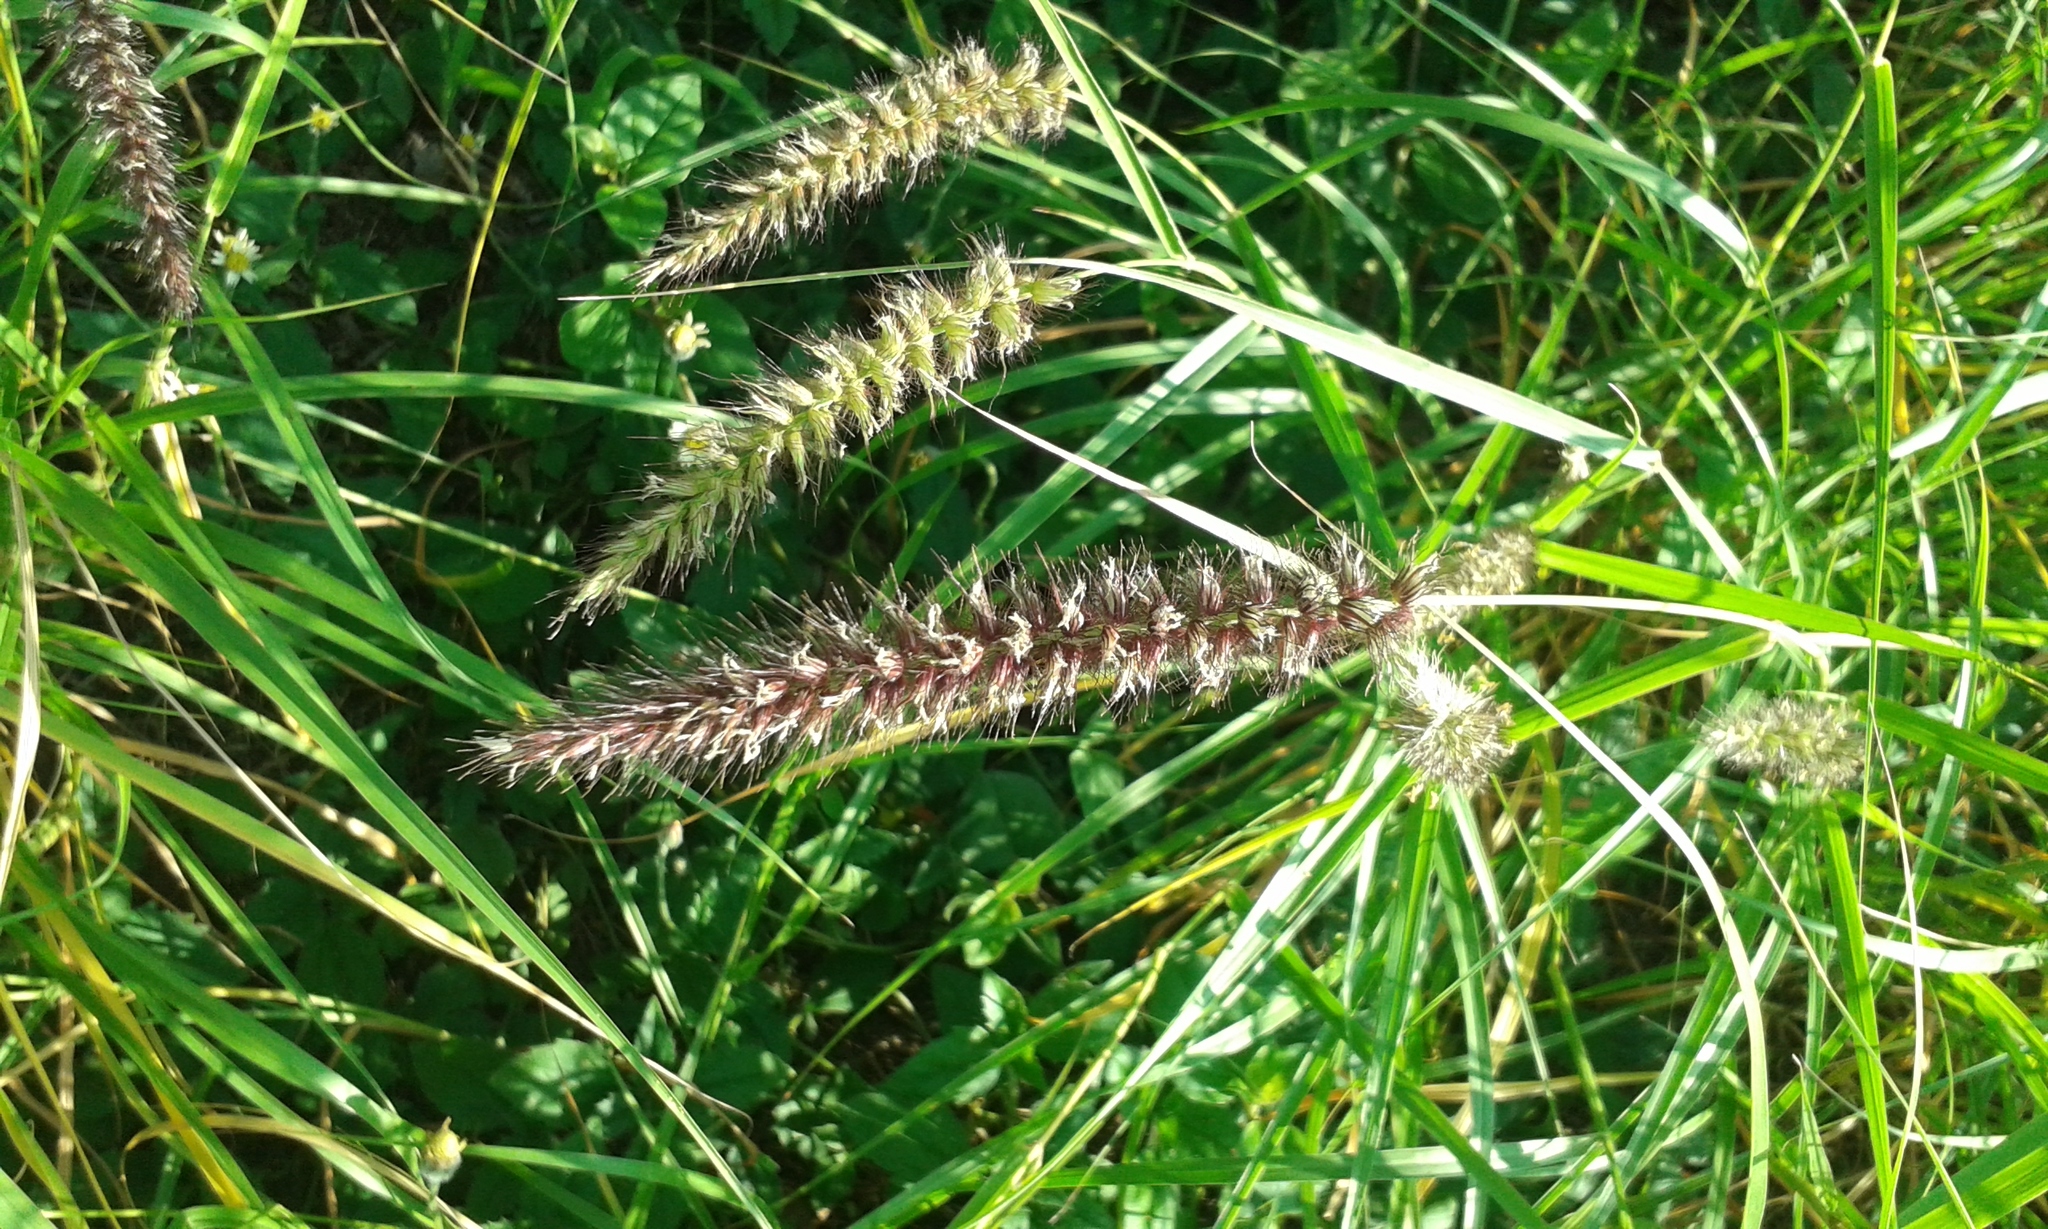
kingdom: Plantae
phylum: Tracheophyta
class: Liliopsida
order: Poales
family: Poaceae
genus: Cenchrus
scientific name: Cenchrus ciliaris
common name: Buffelgrass
